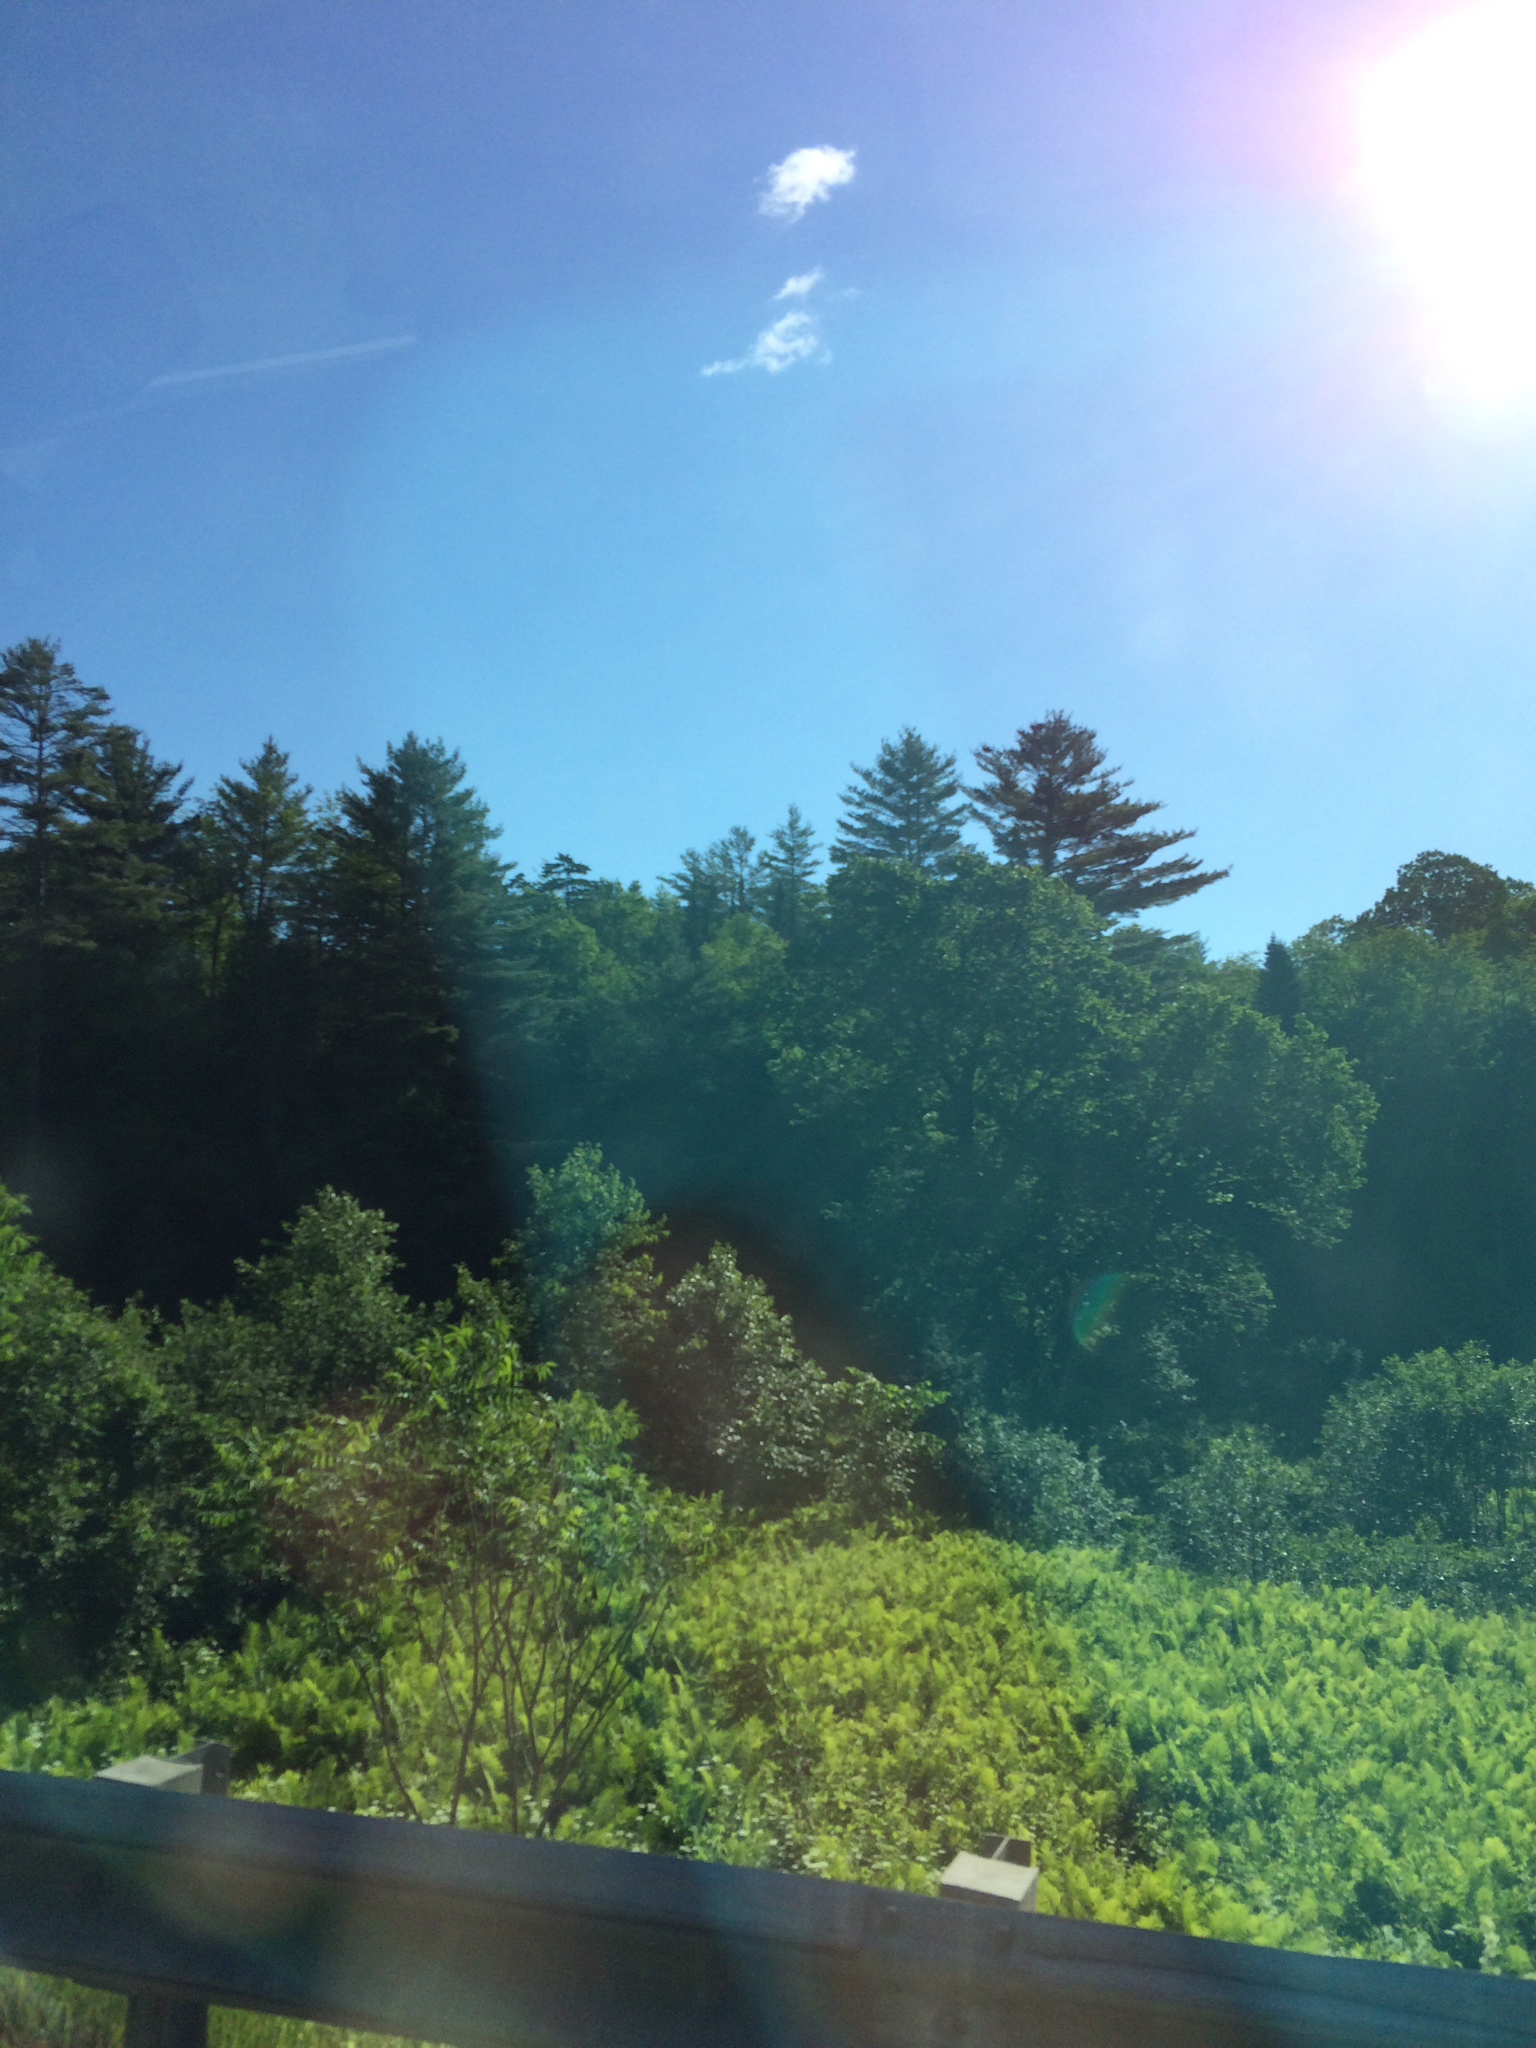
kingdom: Plantae
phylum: Tracheophyta
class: Magnoliopsida
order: Sapindales
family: Anacardiaceae
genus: Rhus
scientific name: Rhus typhina
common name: Staghorn sumac
